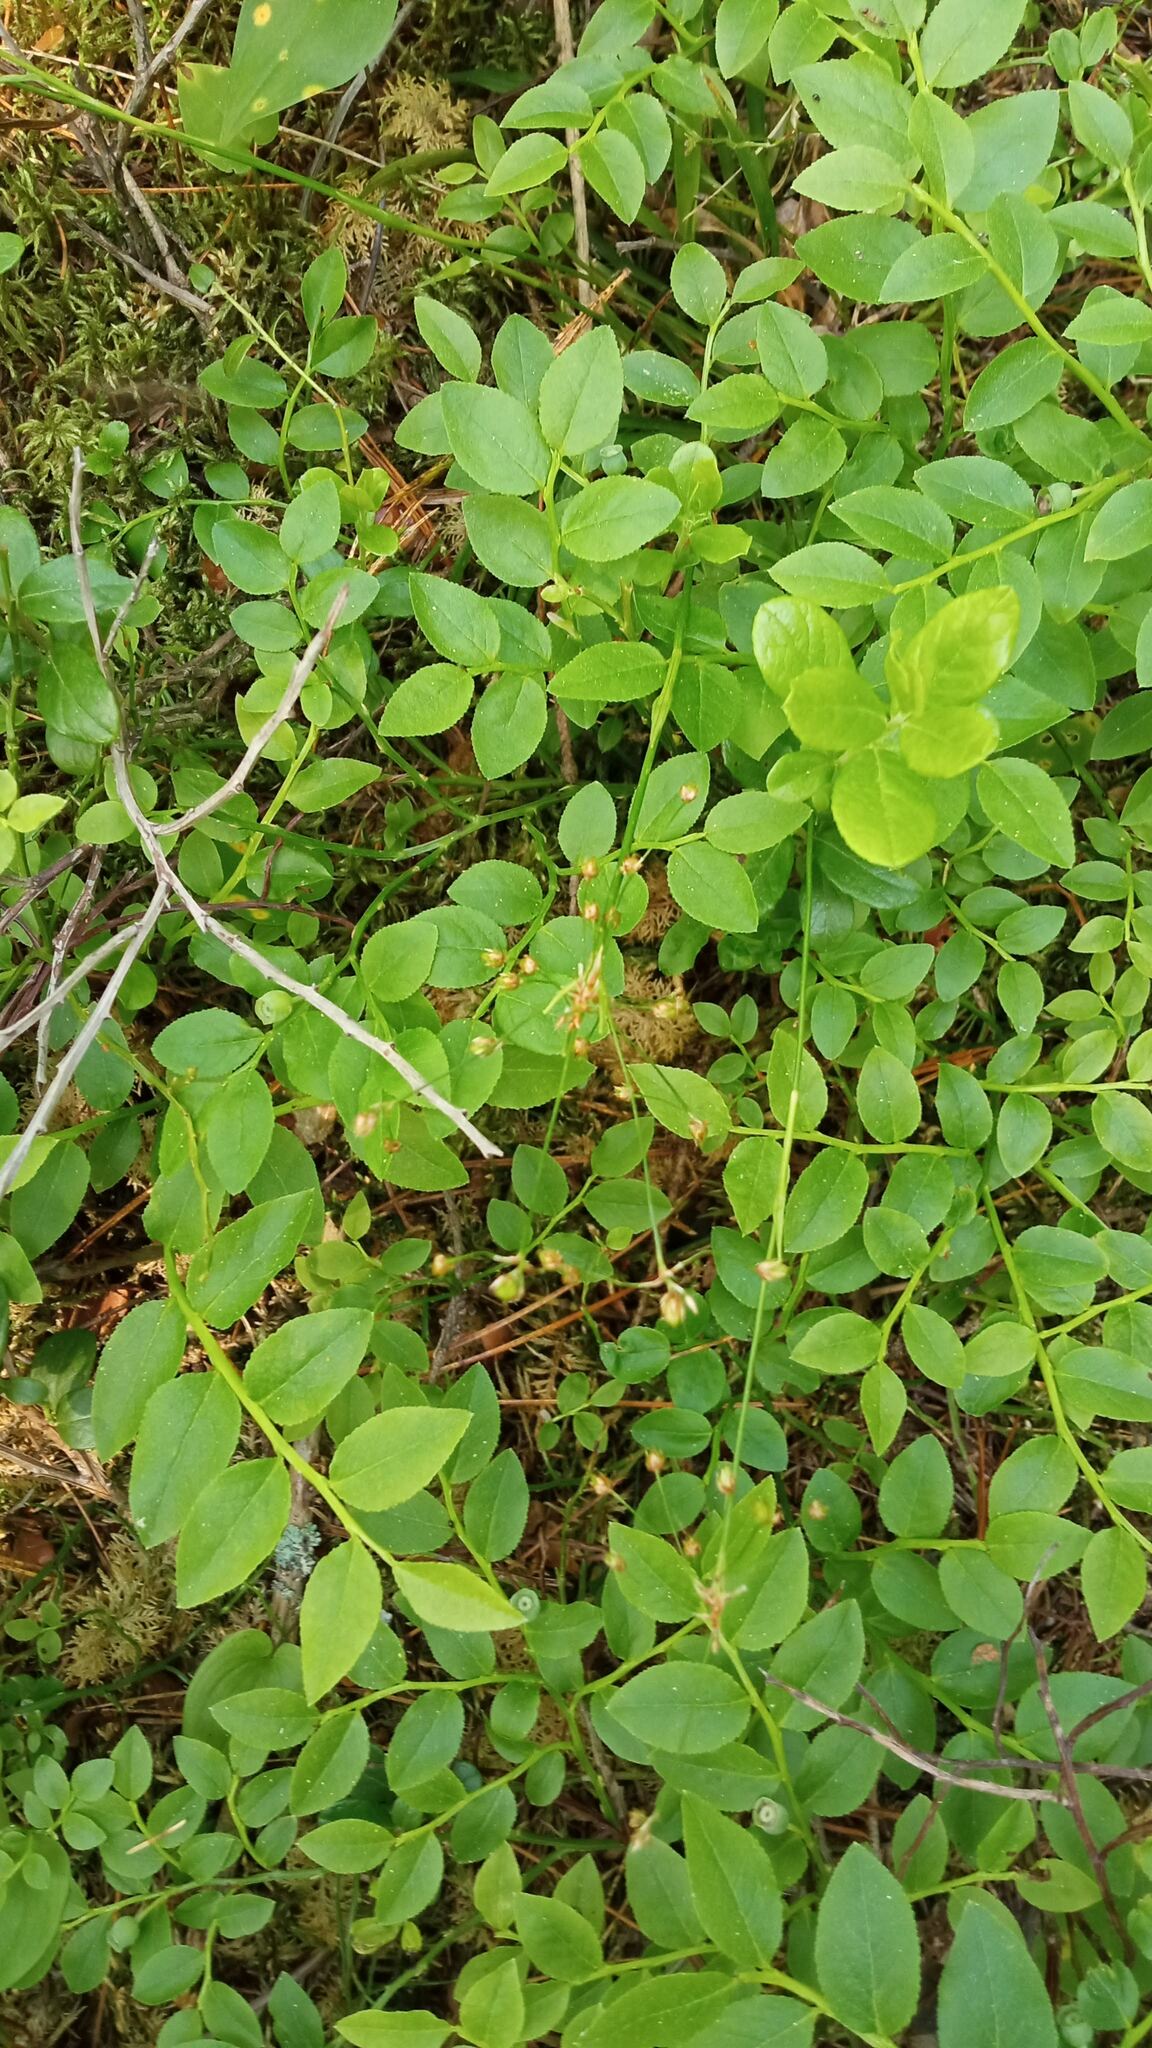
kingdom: Plantae
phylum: Tracheophyta
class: Magnoliopsida
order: Ericales
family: Ericaceae
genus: Vaccinium
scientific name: Vaccinium myrtillus
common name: Bilberry
